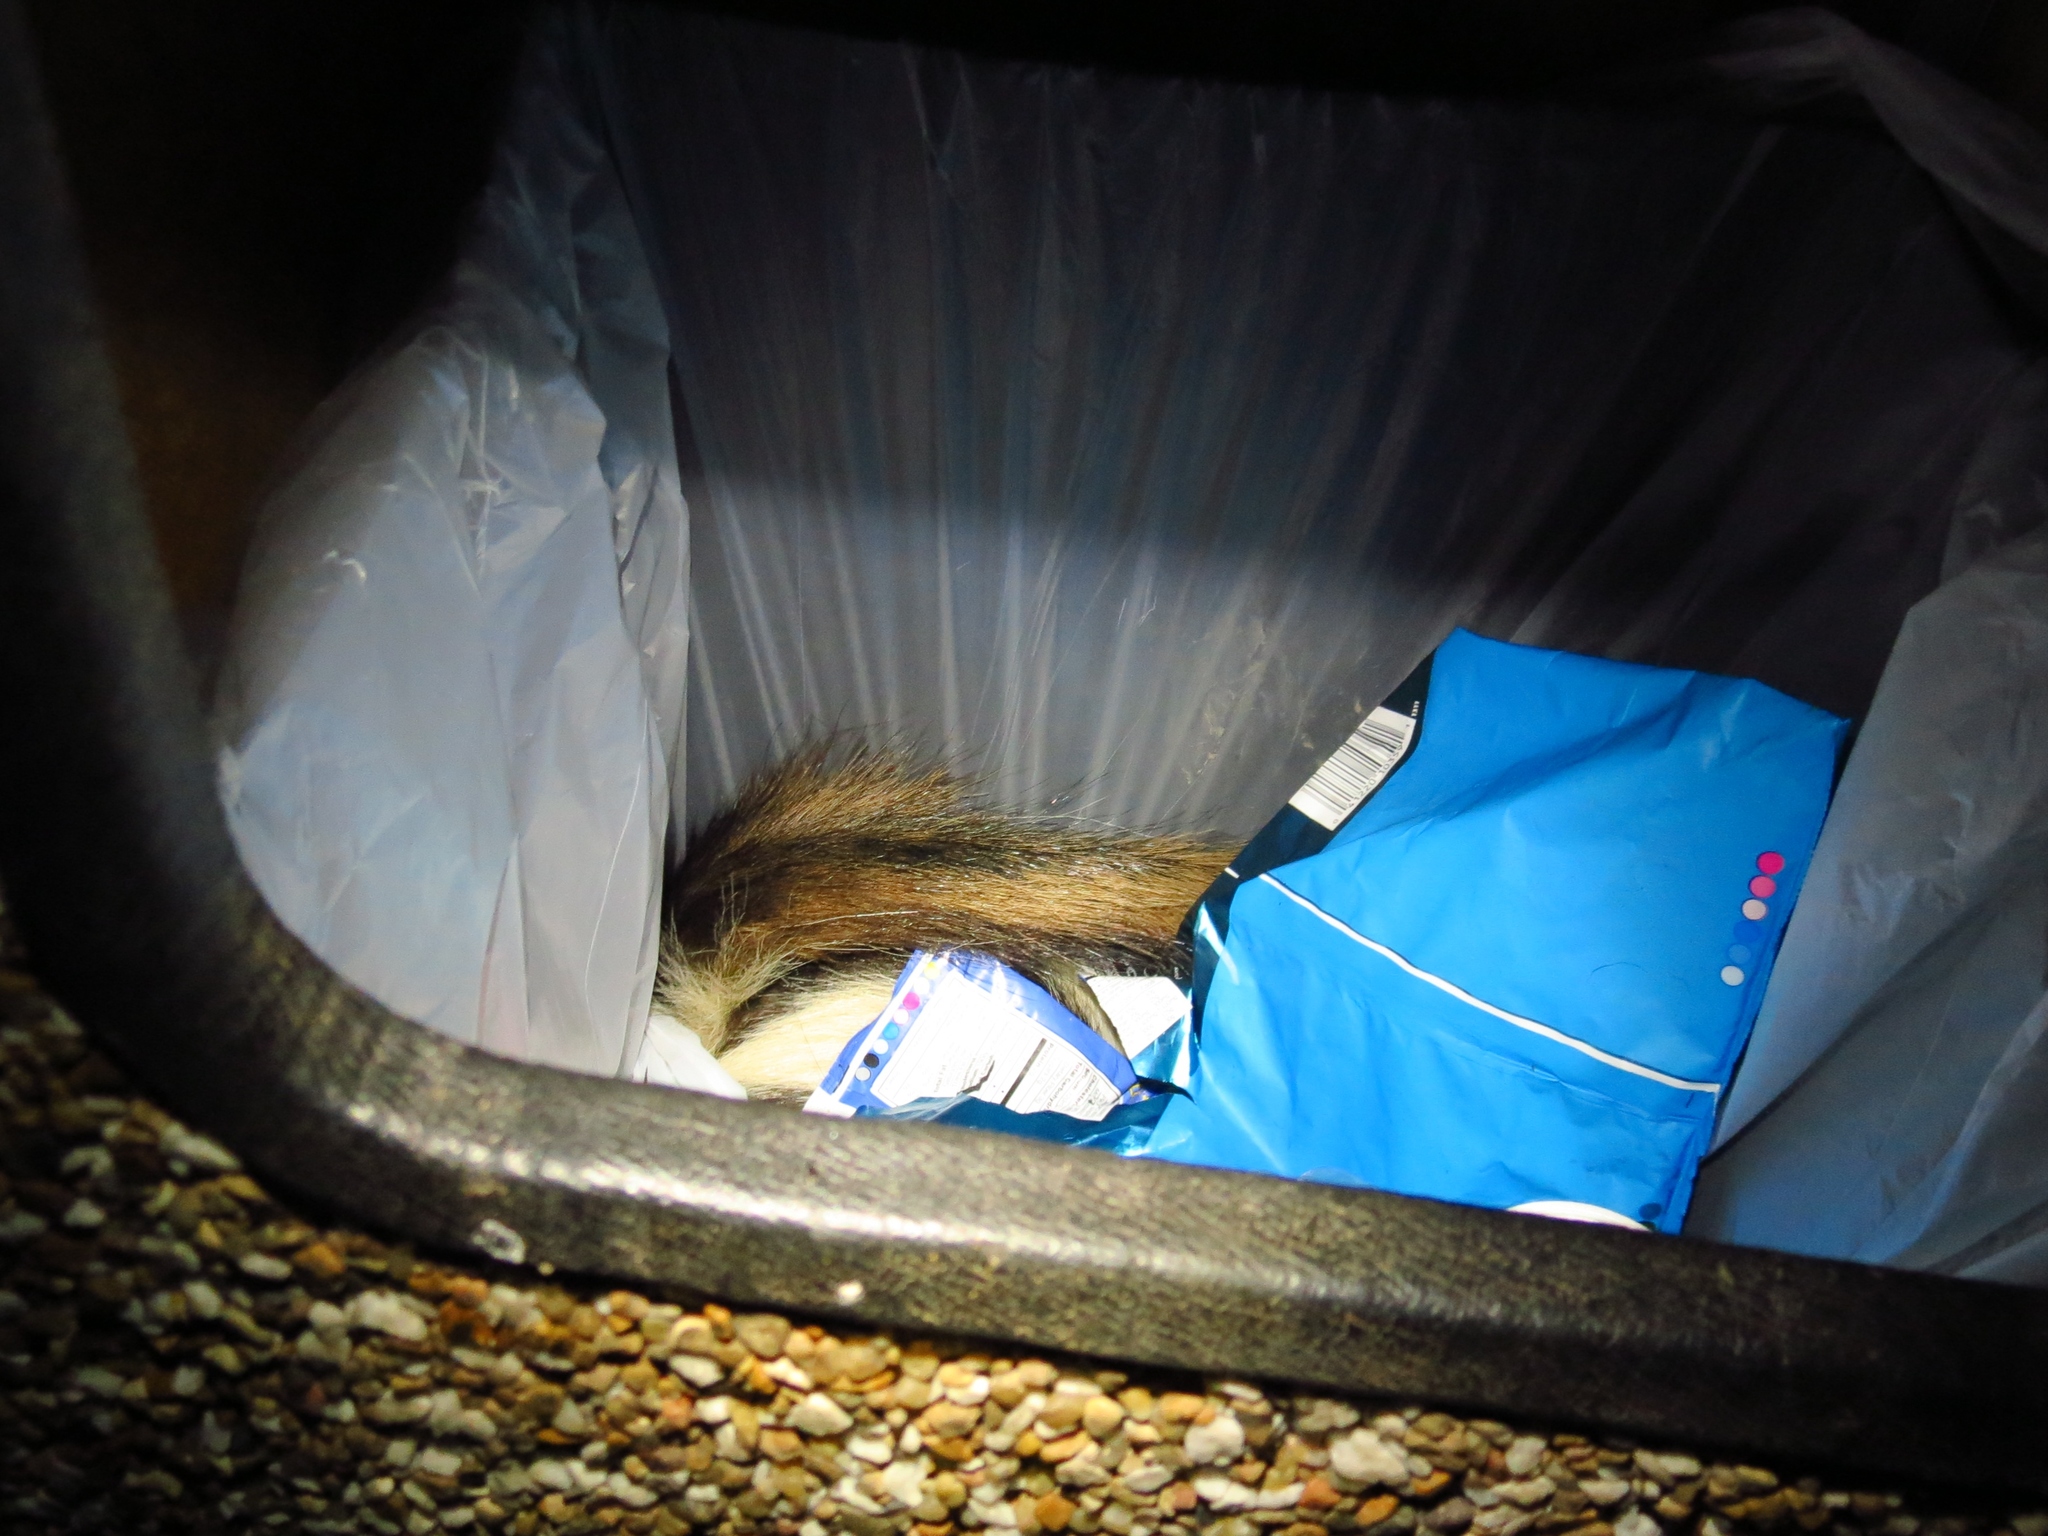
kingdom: Animalia
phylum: Chordata
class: Mammalia
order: Carnivora
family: Mephitidae
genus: Mephitis
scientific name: Mephitis mephitis
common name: Striped skunk
